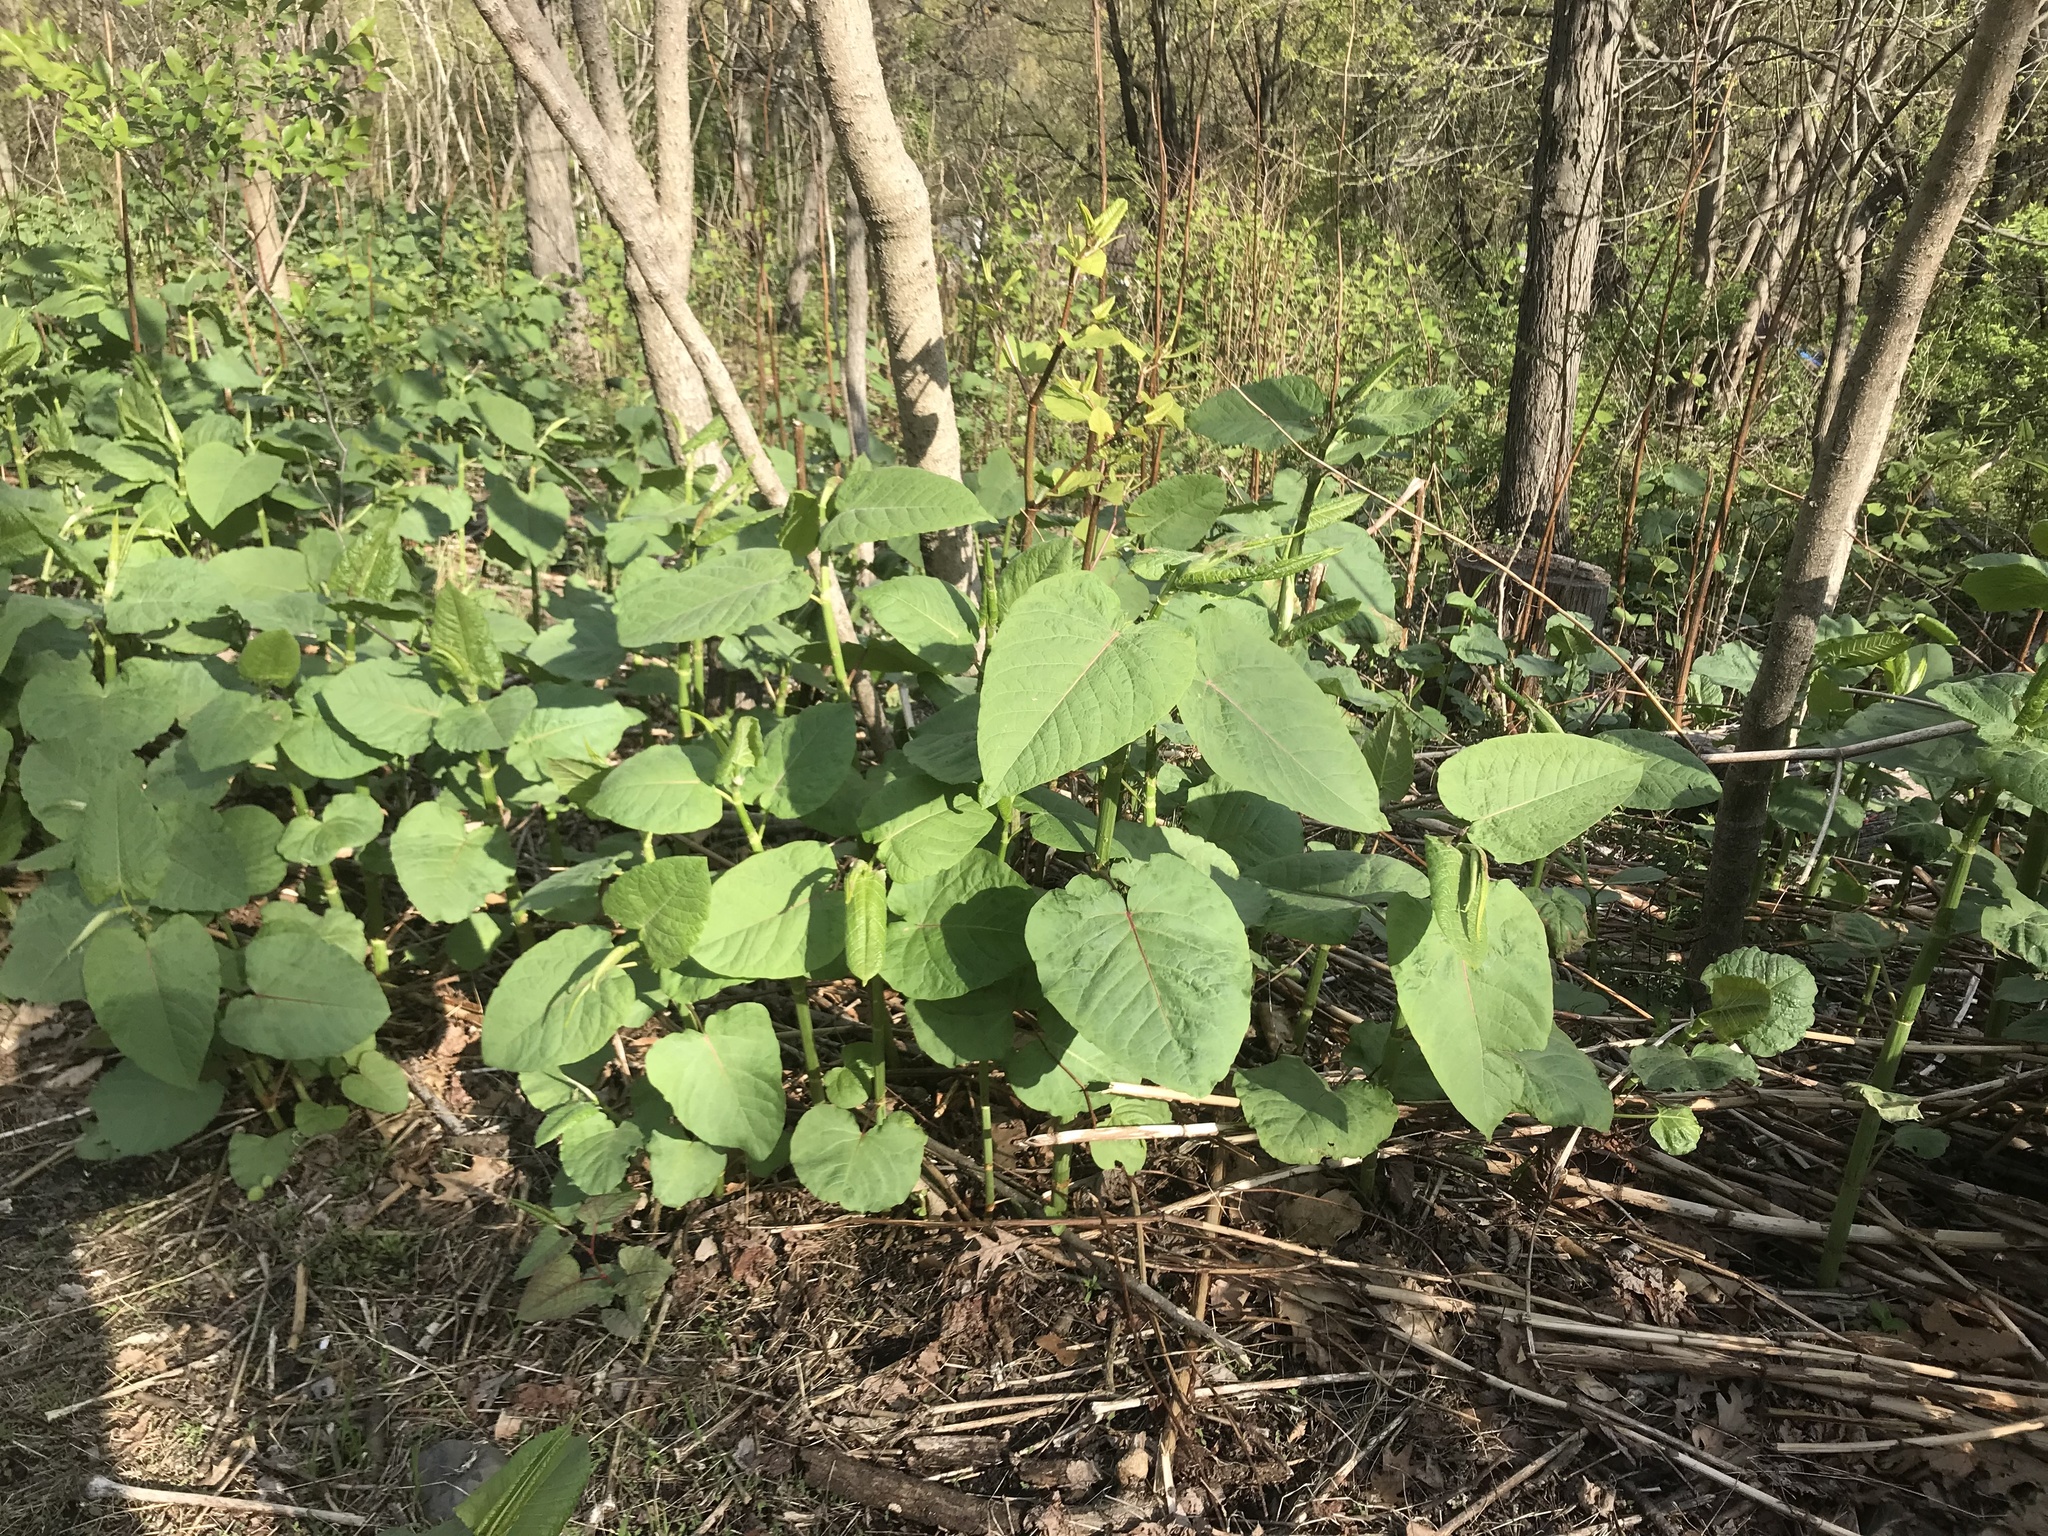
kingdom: Plantae
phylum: Tracheophyta
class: Magnoliopsida
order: Caryophyllales
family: Polygonaceae
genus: Reynoutria
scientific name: Reynoutria sachalinensis
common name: Giant knotweed
